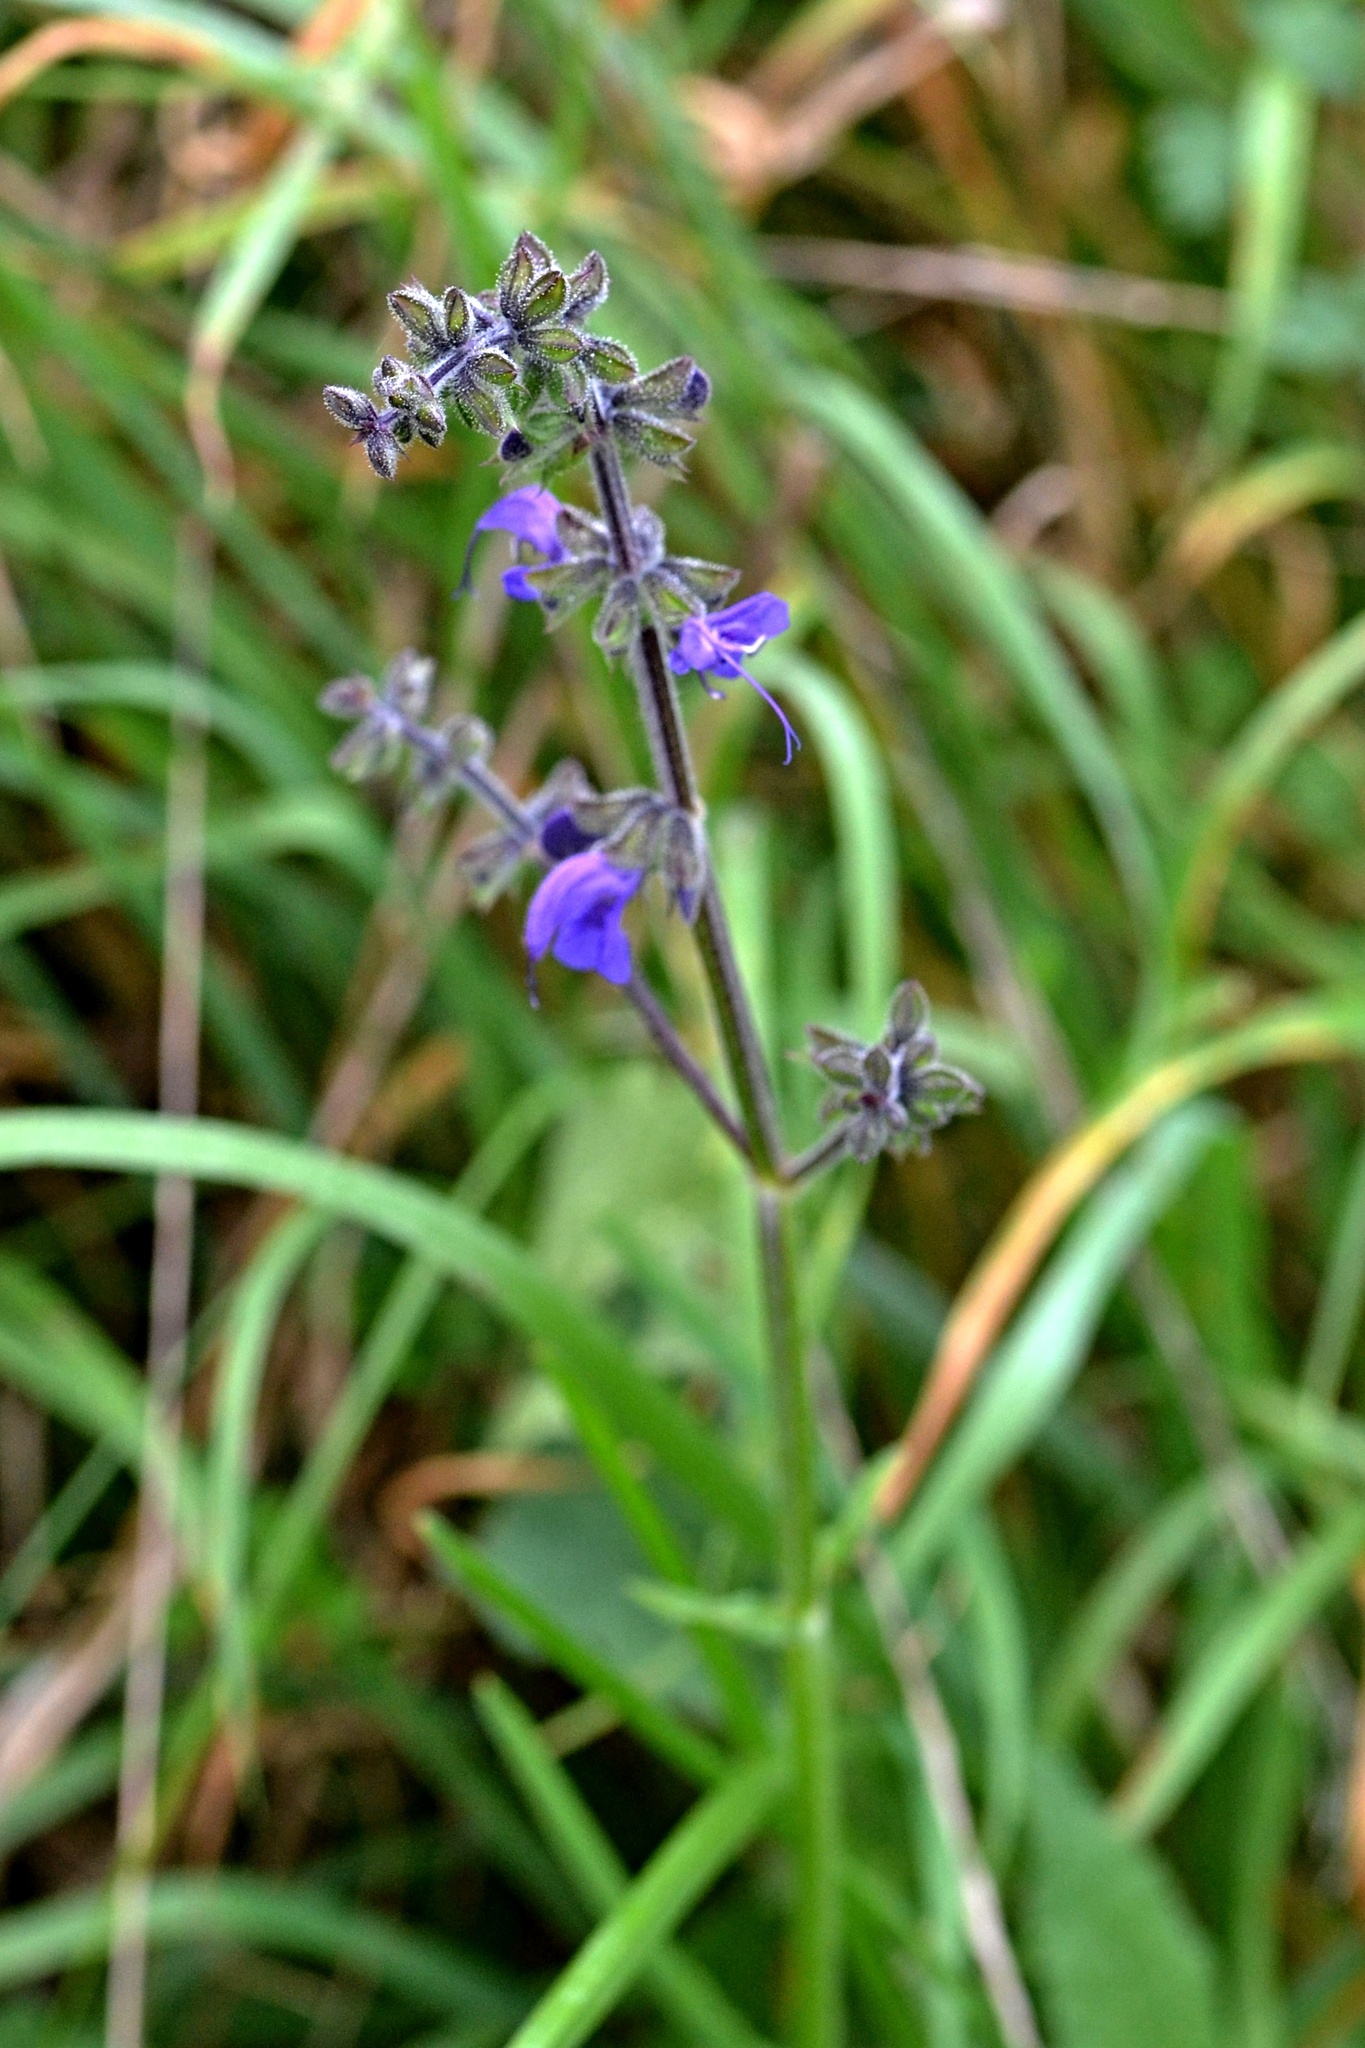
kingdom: Plantae
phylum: Tracheophyta
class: Magnoliopsida
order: Lamiales
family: Lamiaceae
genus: Salvia
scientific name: Salvia pratensis
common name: Meadow sage
